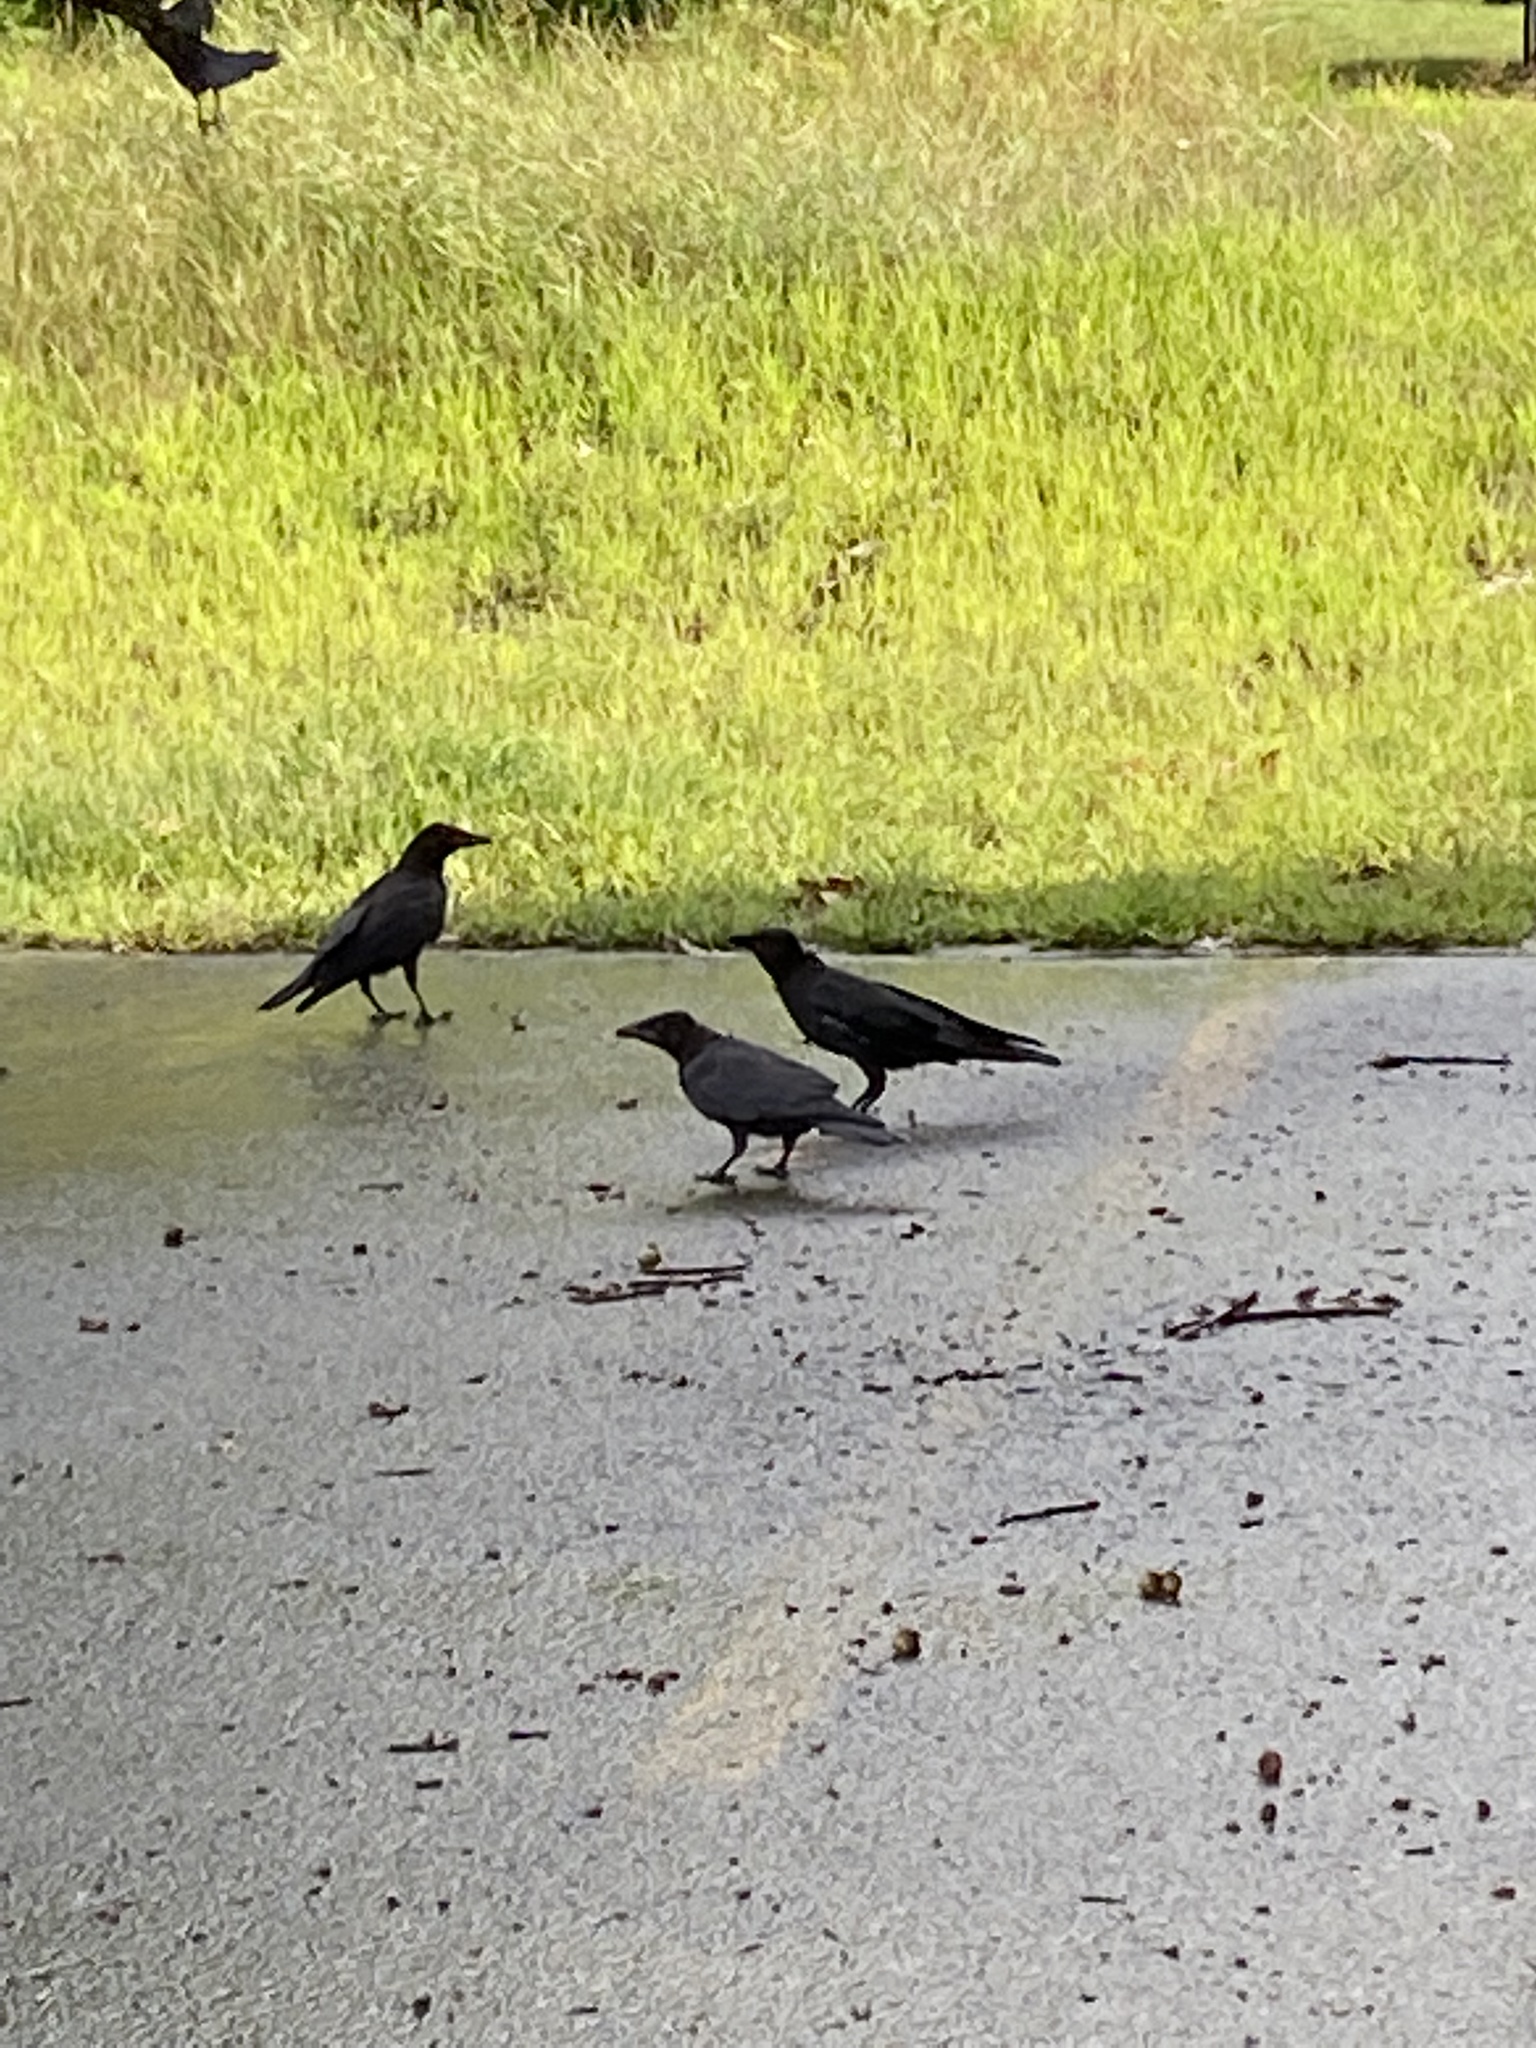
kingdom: Animalia
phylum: Chordata
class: Aves
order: Passeriformes
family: Corvidae
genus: Corvus
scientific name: Corvus brachyrhynchos
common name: American crow
